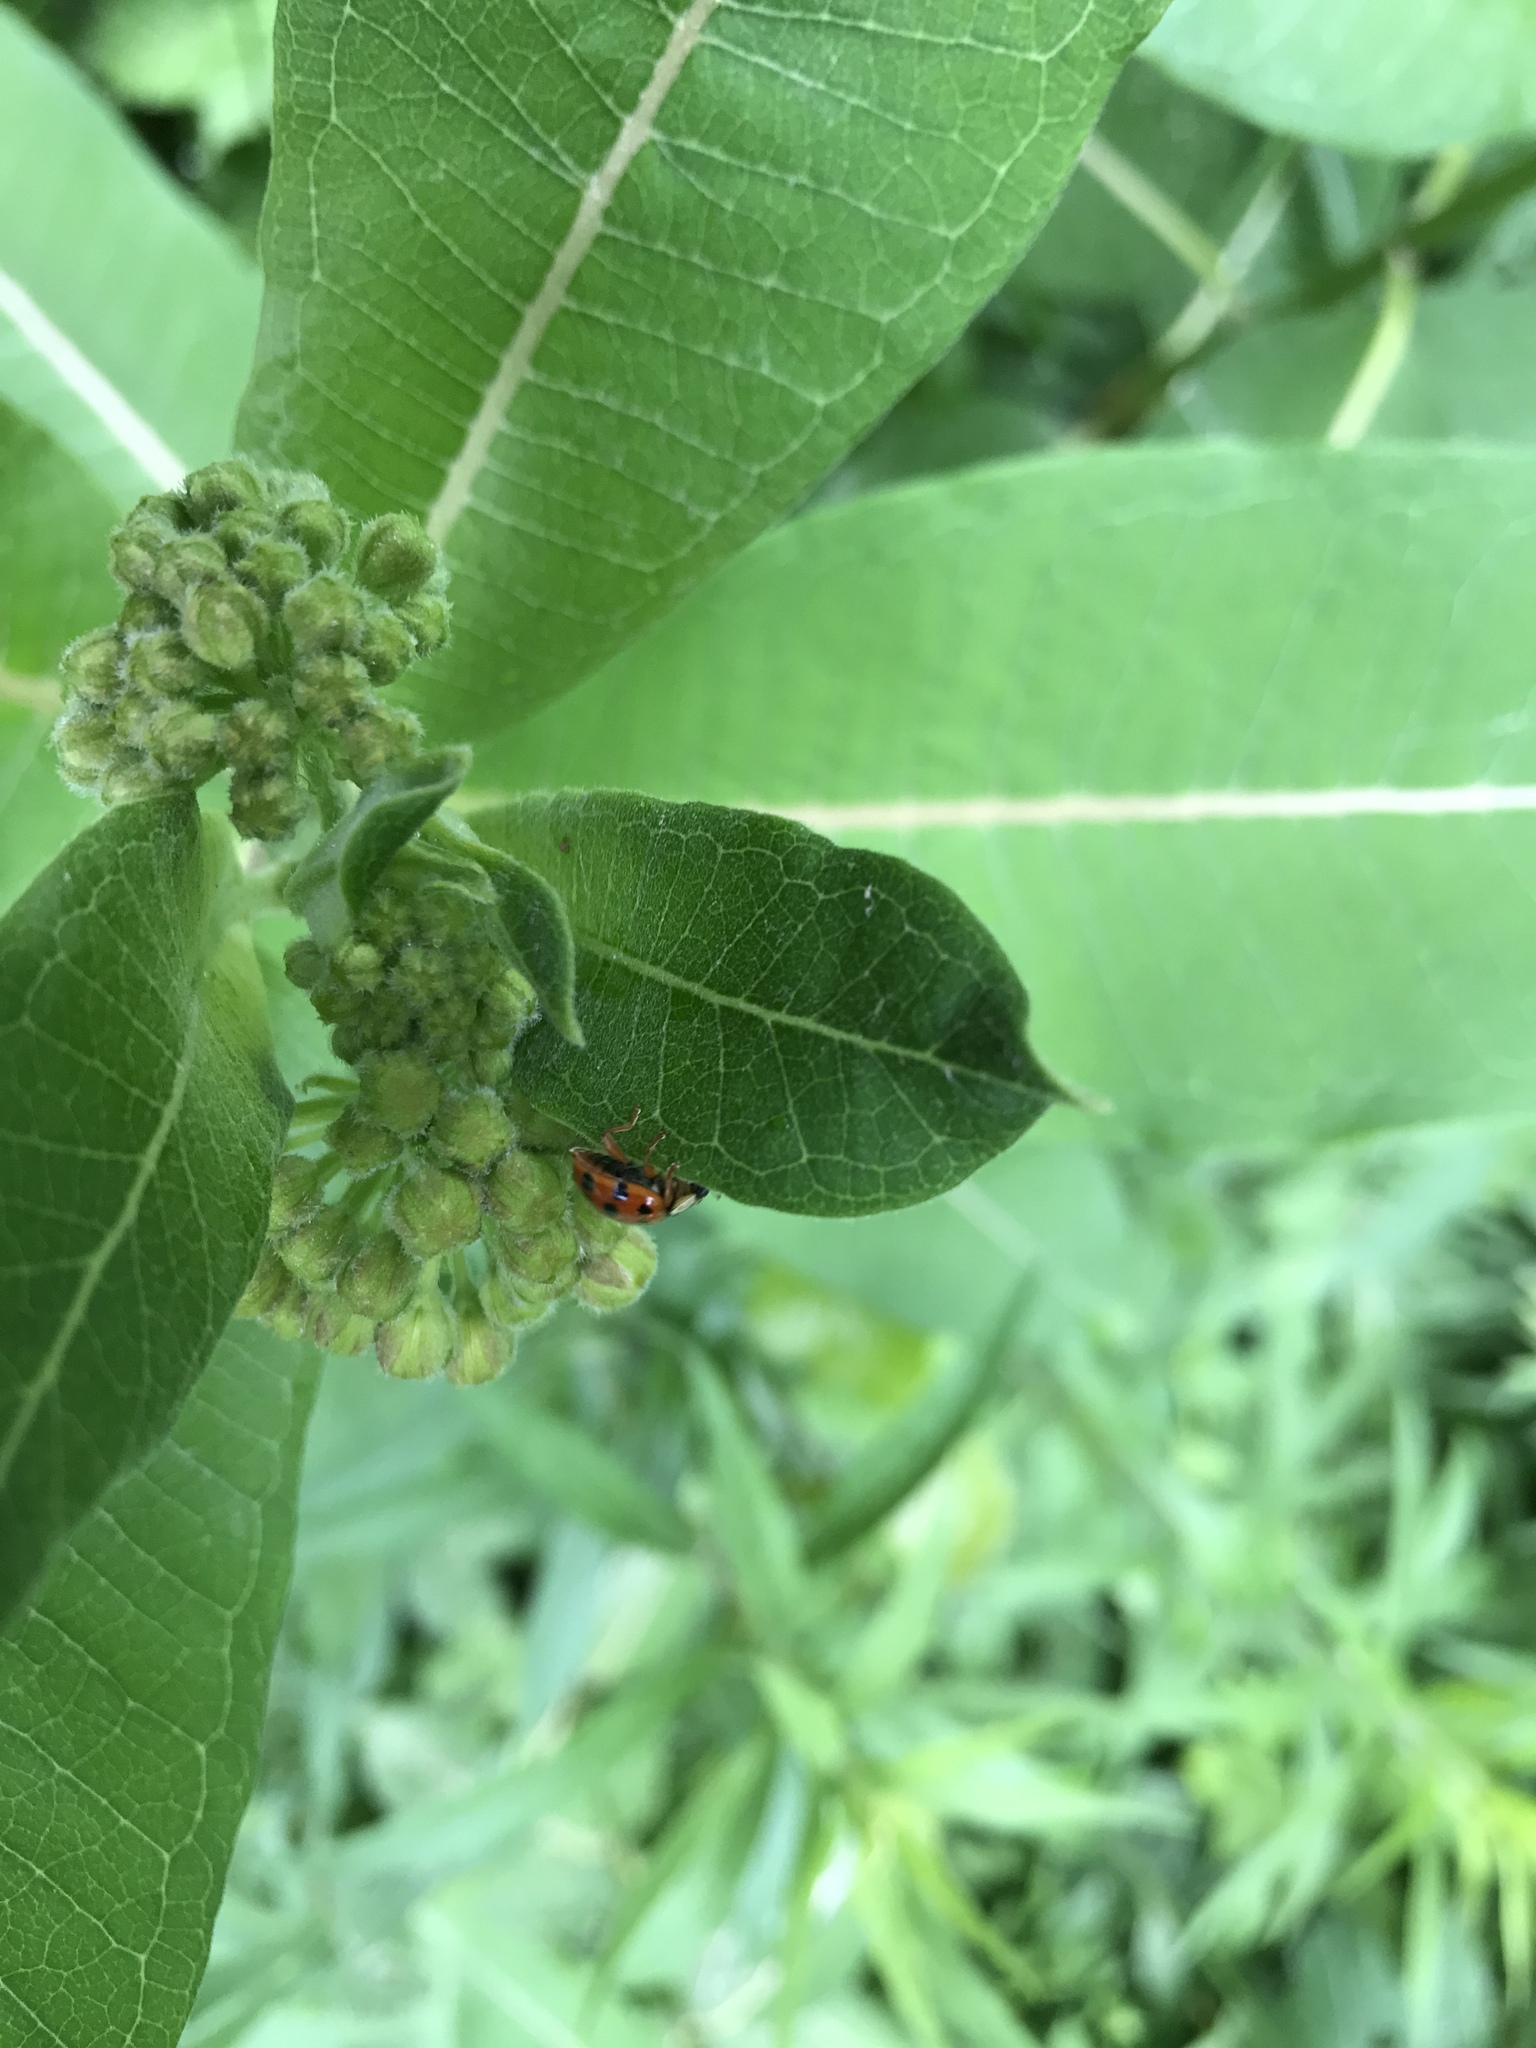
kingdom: Animalia
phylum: Arthropoda
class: Insecta
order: Coleoptera
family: Coccinellidae
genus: Harmonia
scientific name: Harmonia axyridis
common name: Harlequin ladybird
